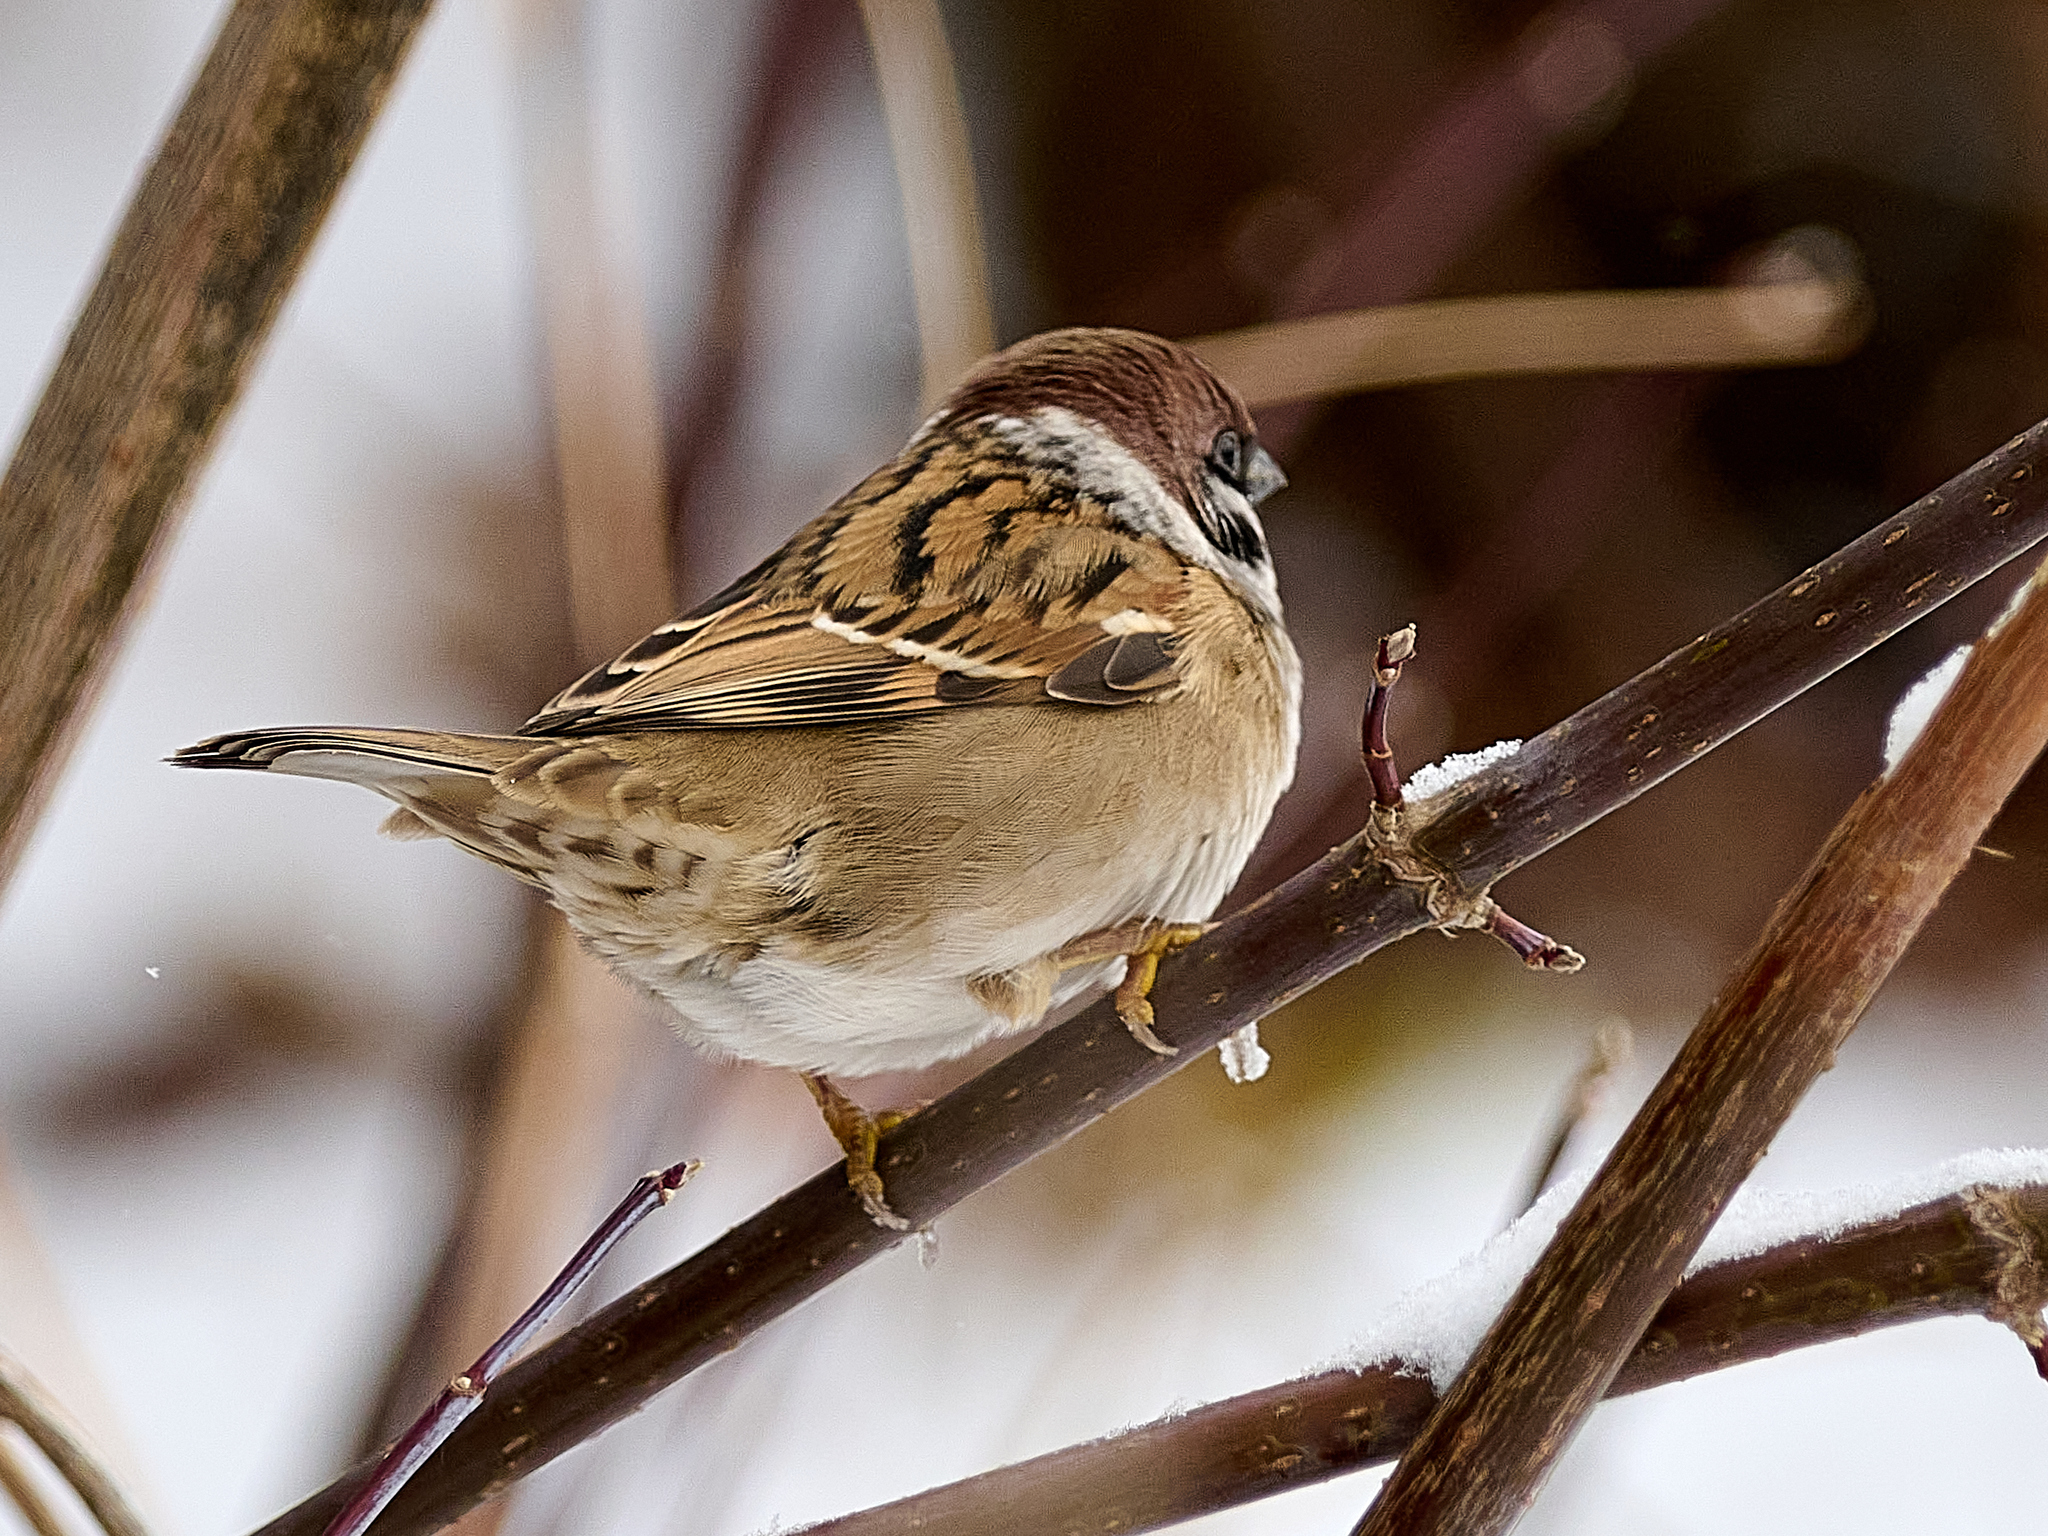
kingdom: Animalia
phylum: Chordata
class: Aves
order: Passeriformes
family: Passeridae
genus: Passer
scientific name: Passer montanus
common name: Eurasian tree sparrow
